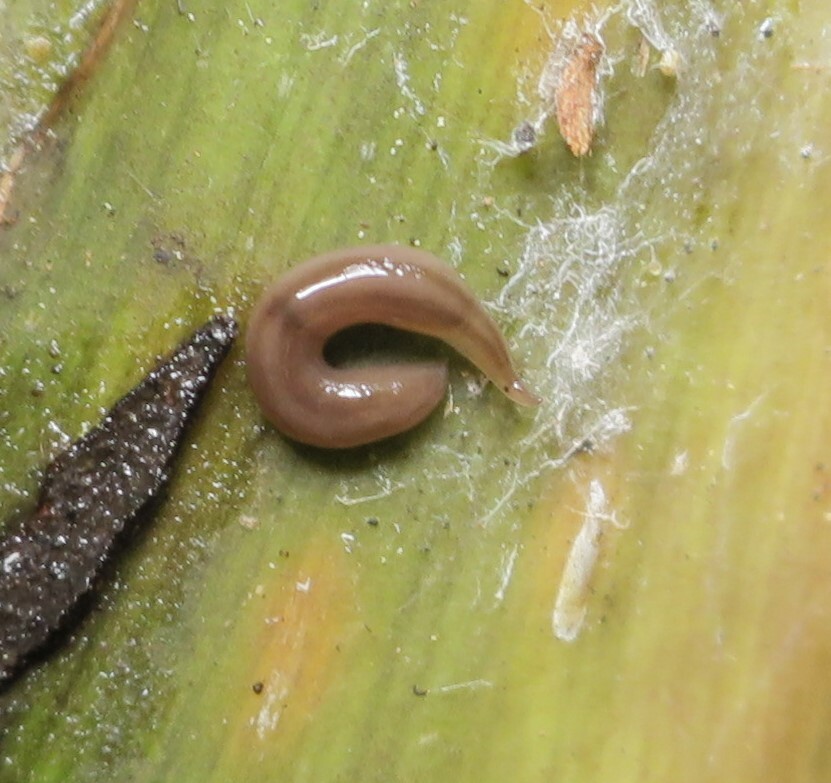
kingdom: Animalia
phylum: Platyhelminthes
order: Tricladida
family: Geoplanidae
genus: Rhynchodemus
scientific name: Rhynchodemus sylvaticus
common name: A flatworm
